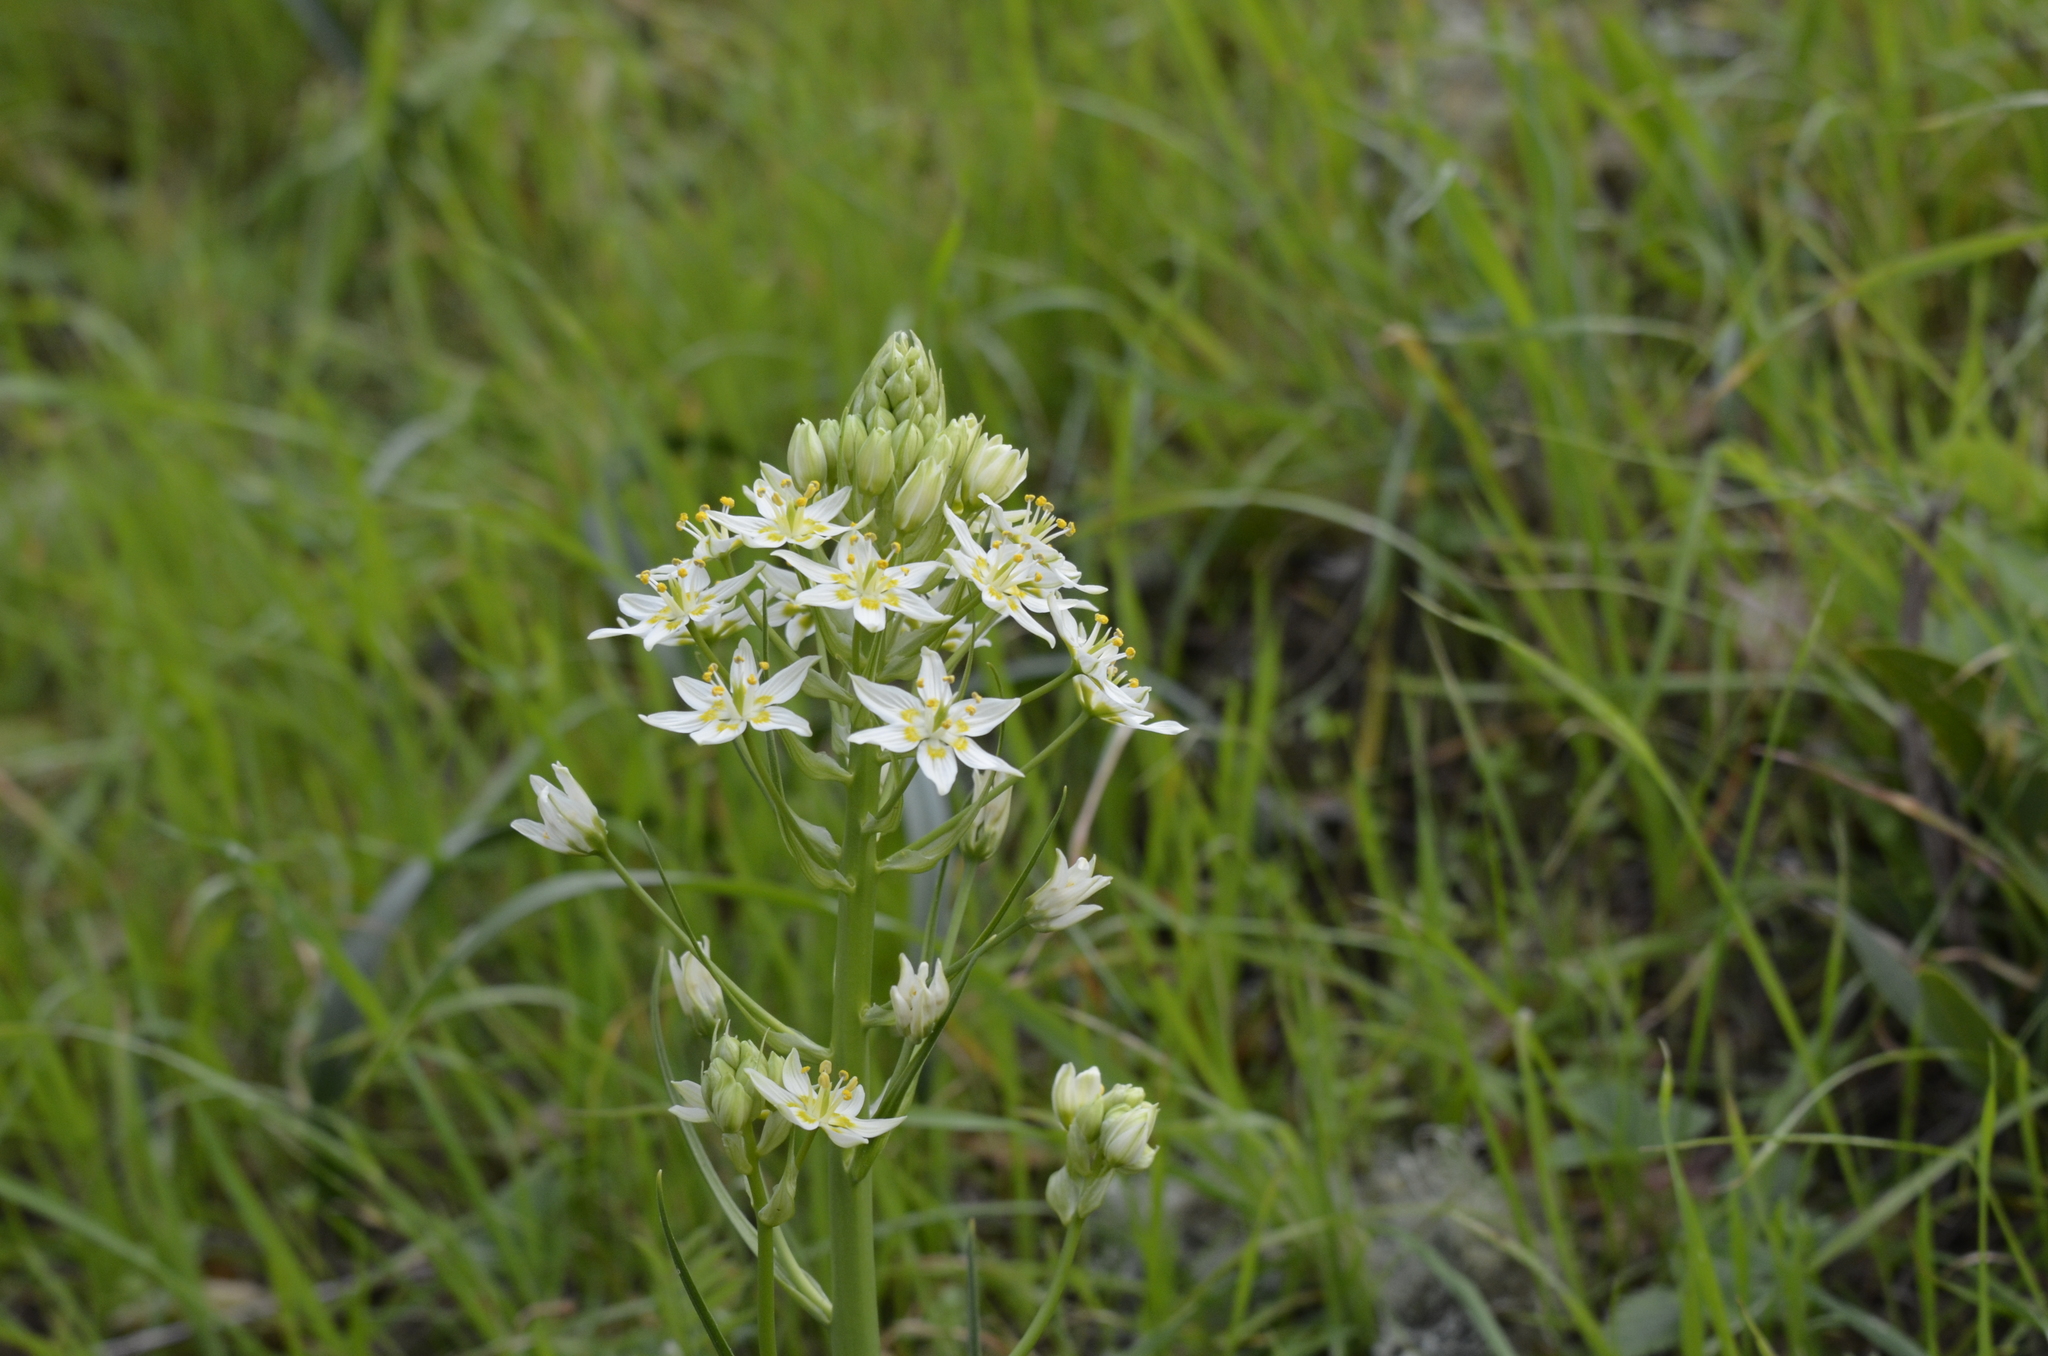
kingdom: Plantae
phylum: Tracheophyta
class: Liliopsida
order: Liliales
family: Melanthiaceae
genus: Toxicoscordion
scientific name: Toxicoscordion fremontii
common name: Fremont's death camas
